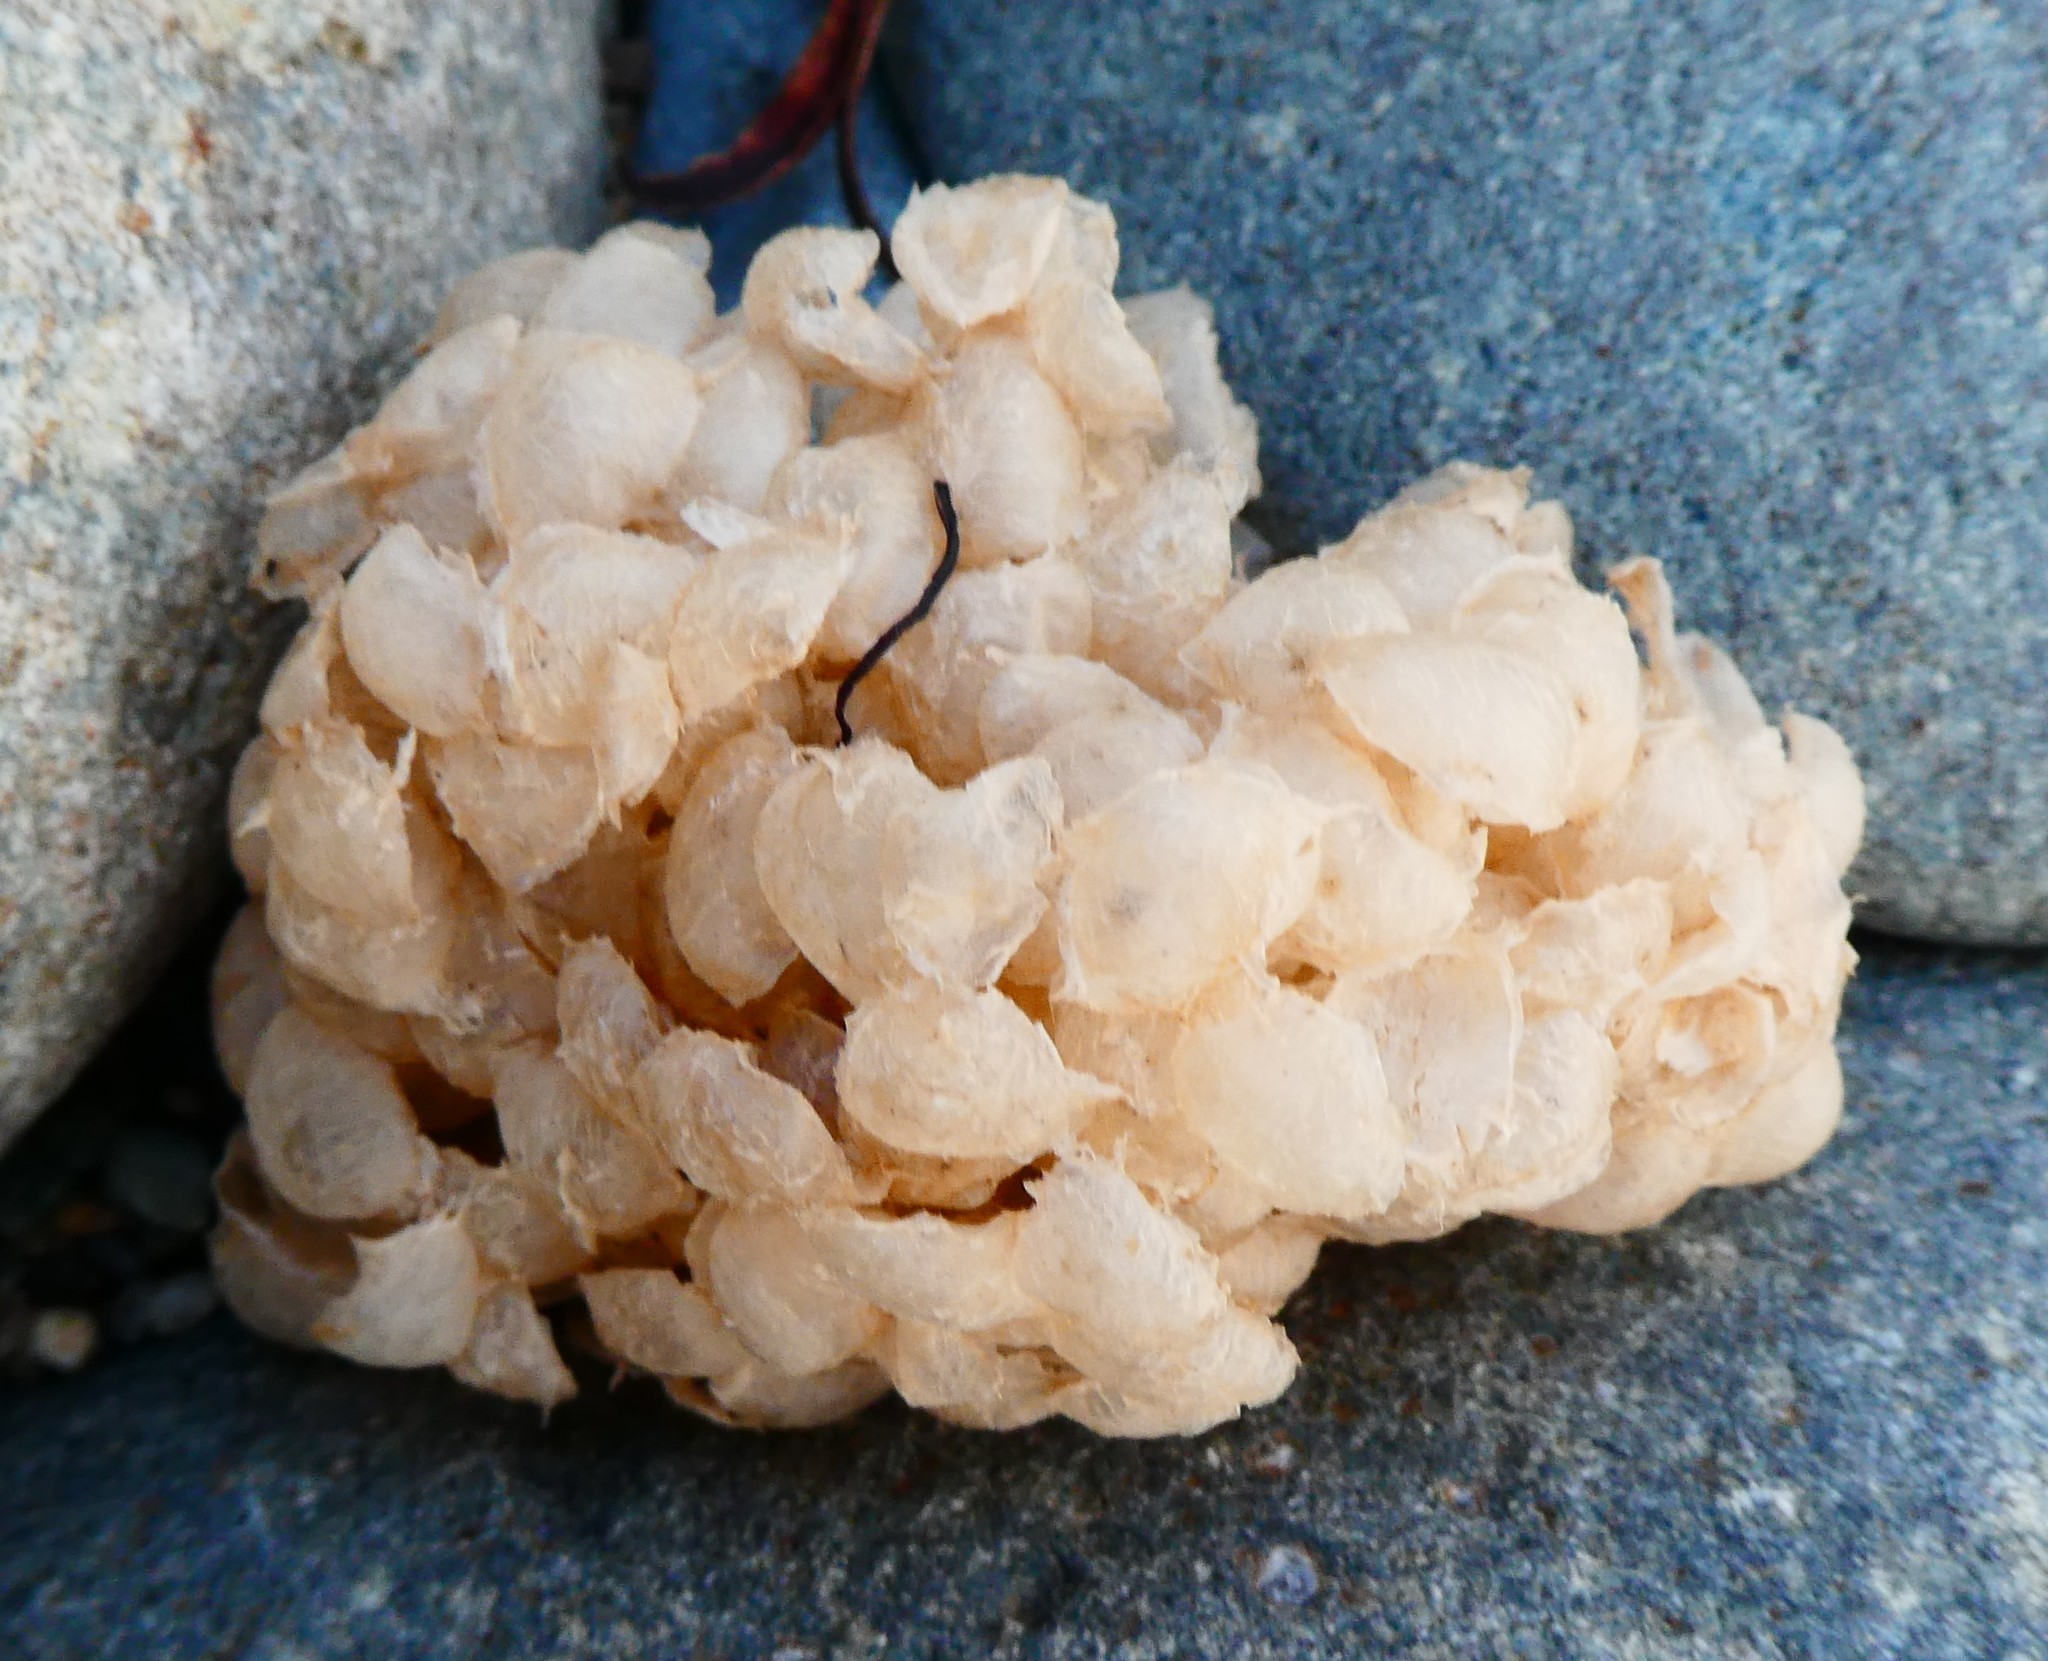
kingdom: Animalia
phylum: Mollusca
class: Gastropoda
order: Neogastropoda
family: Buccinidae
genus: Buccinum
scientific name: Buccinum undatum
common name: Common whelk
